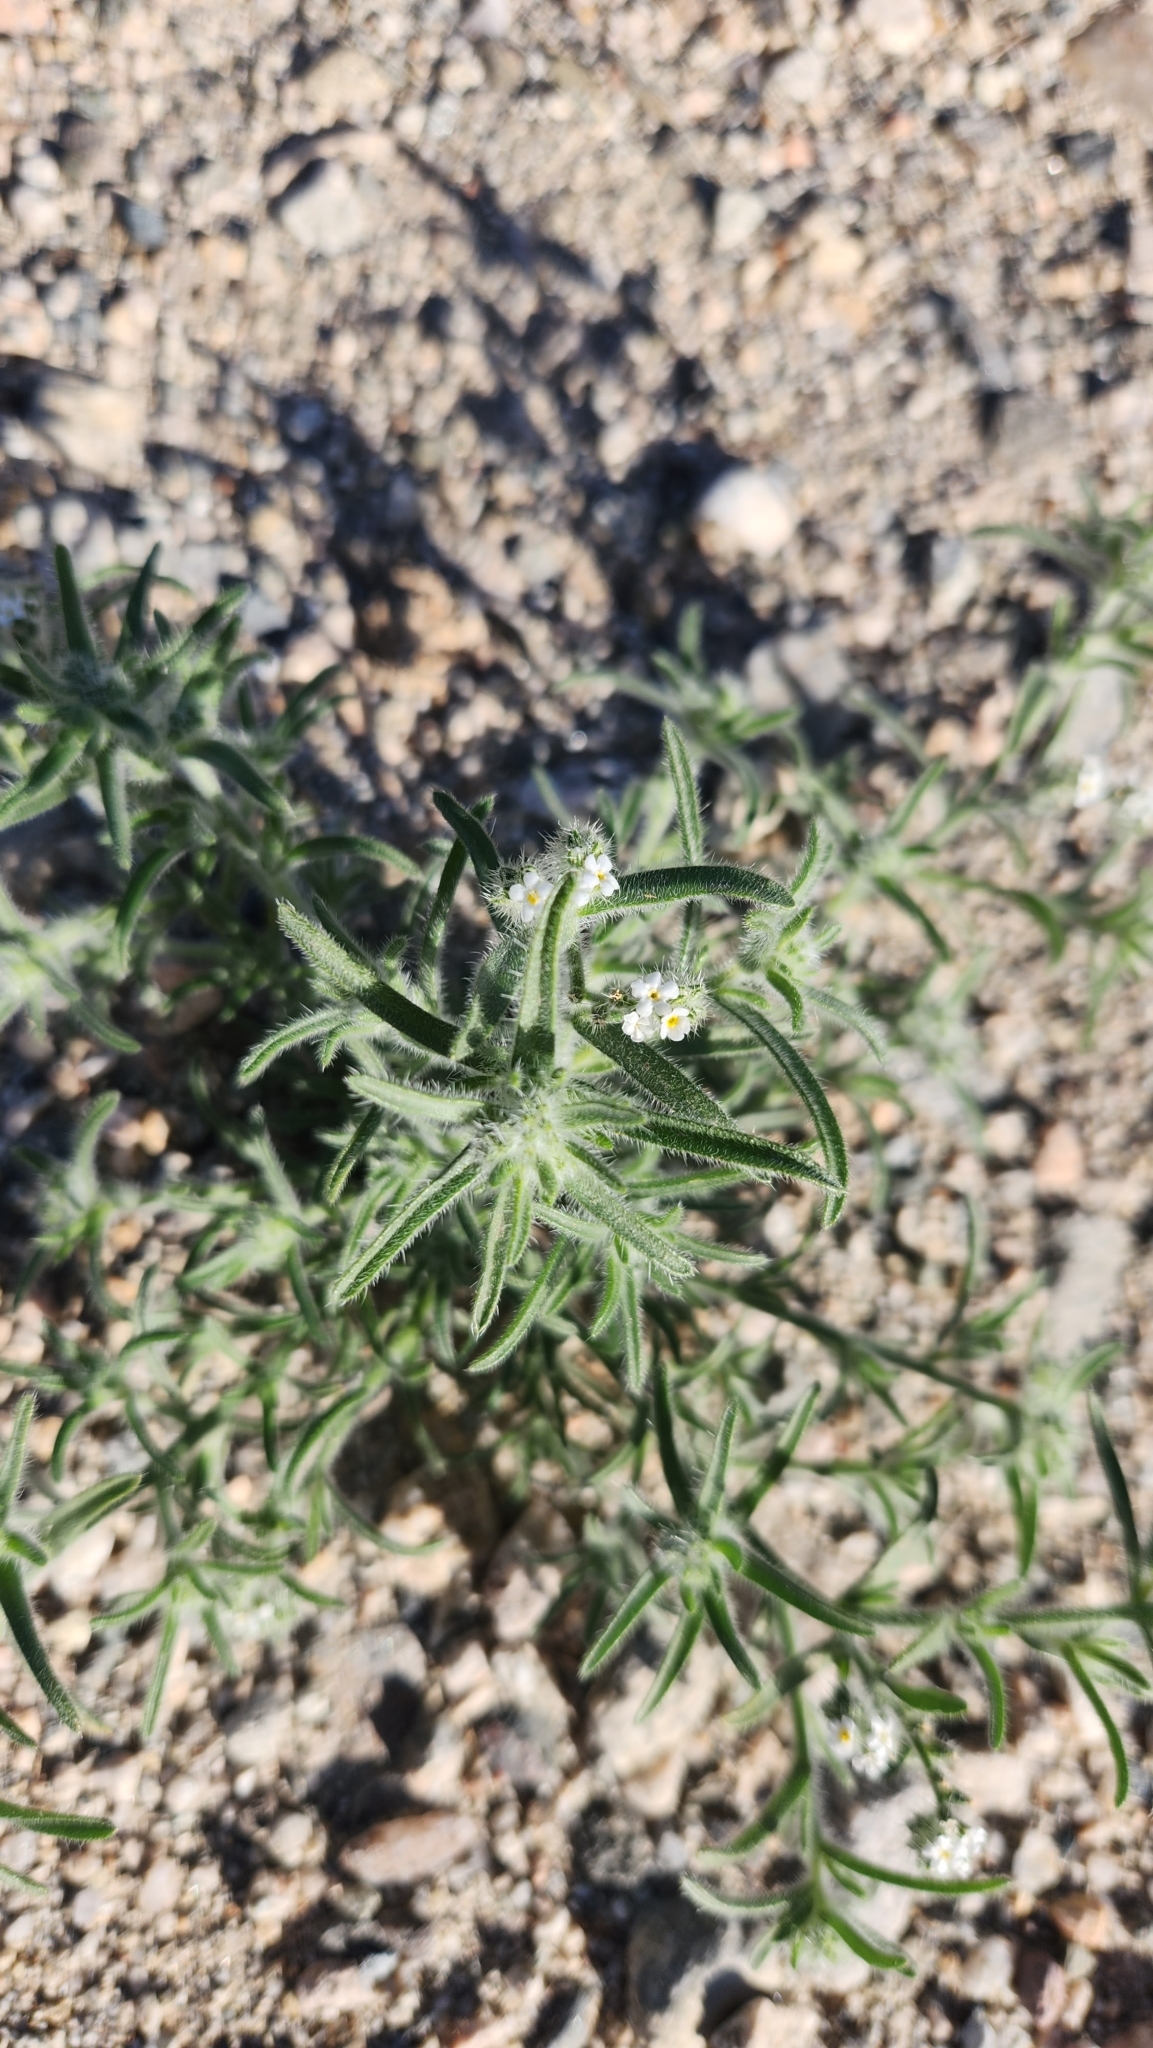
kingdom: Plantae
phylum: Tracheophyta
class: Magnoliopsida
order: Boraginales
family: Boraginaceae
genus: Johnstonella
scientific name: Johnstonella angustifolia
